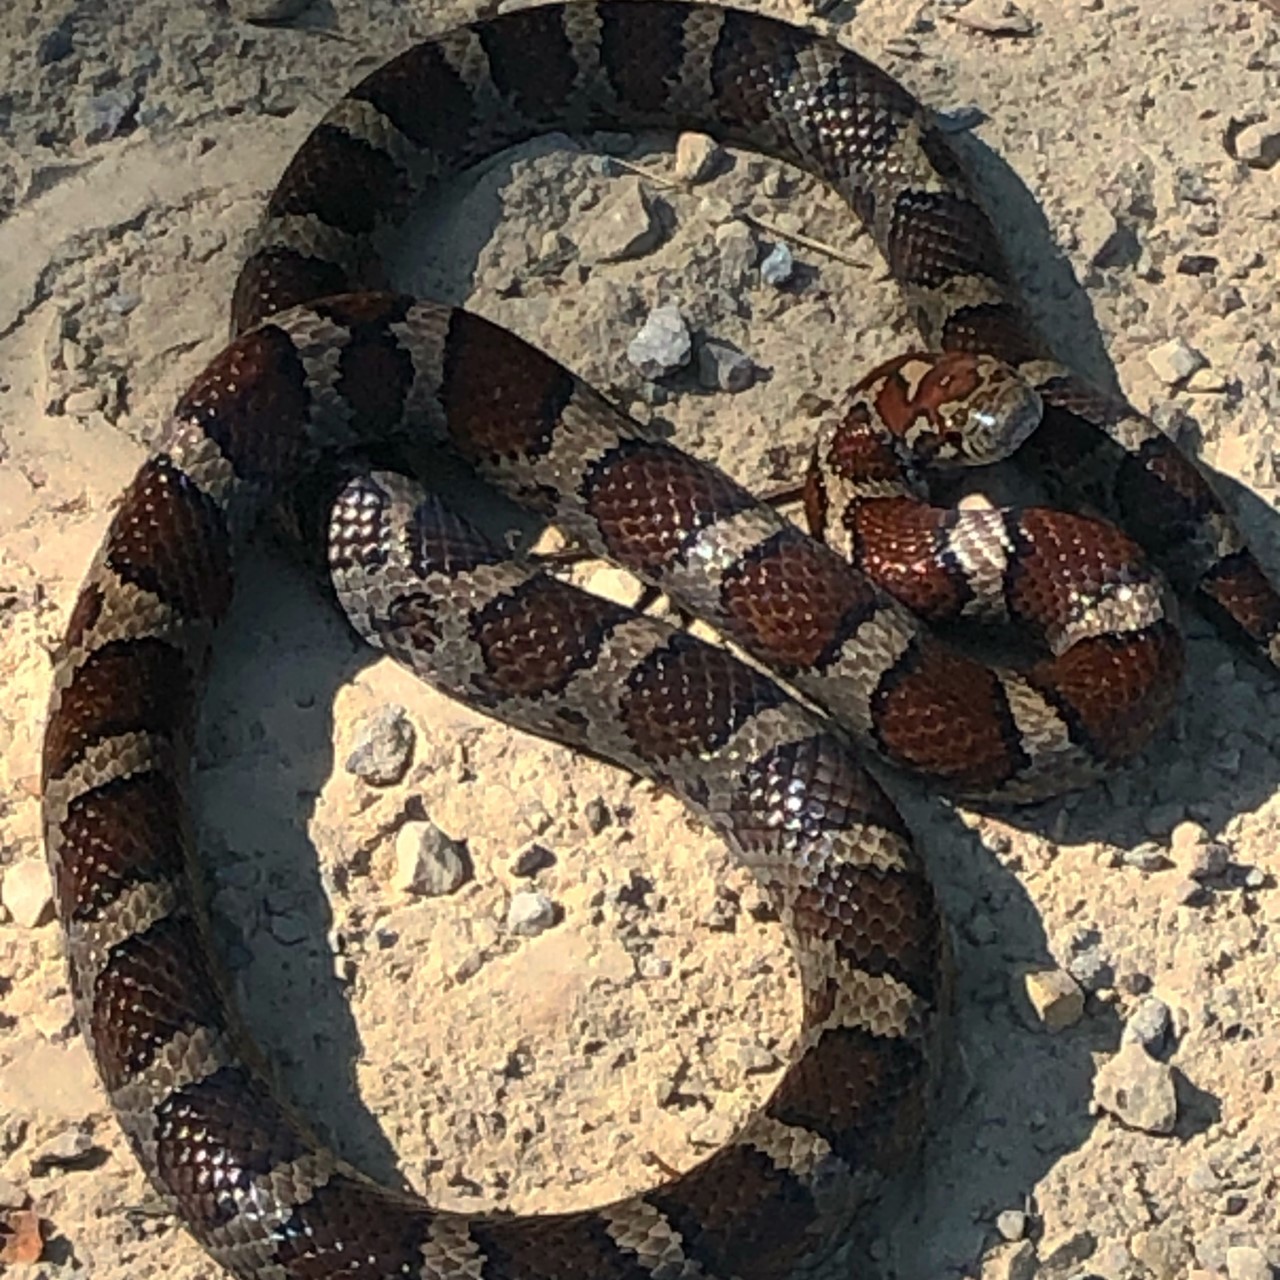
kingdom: Animalia
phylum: Chordata
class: Squamata
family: Colubridae
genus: Lampropeltis
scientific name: Lampropeltis triangulum
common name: Eastern milksnake
